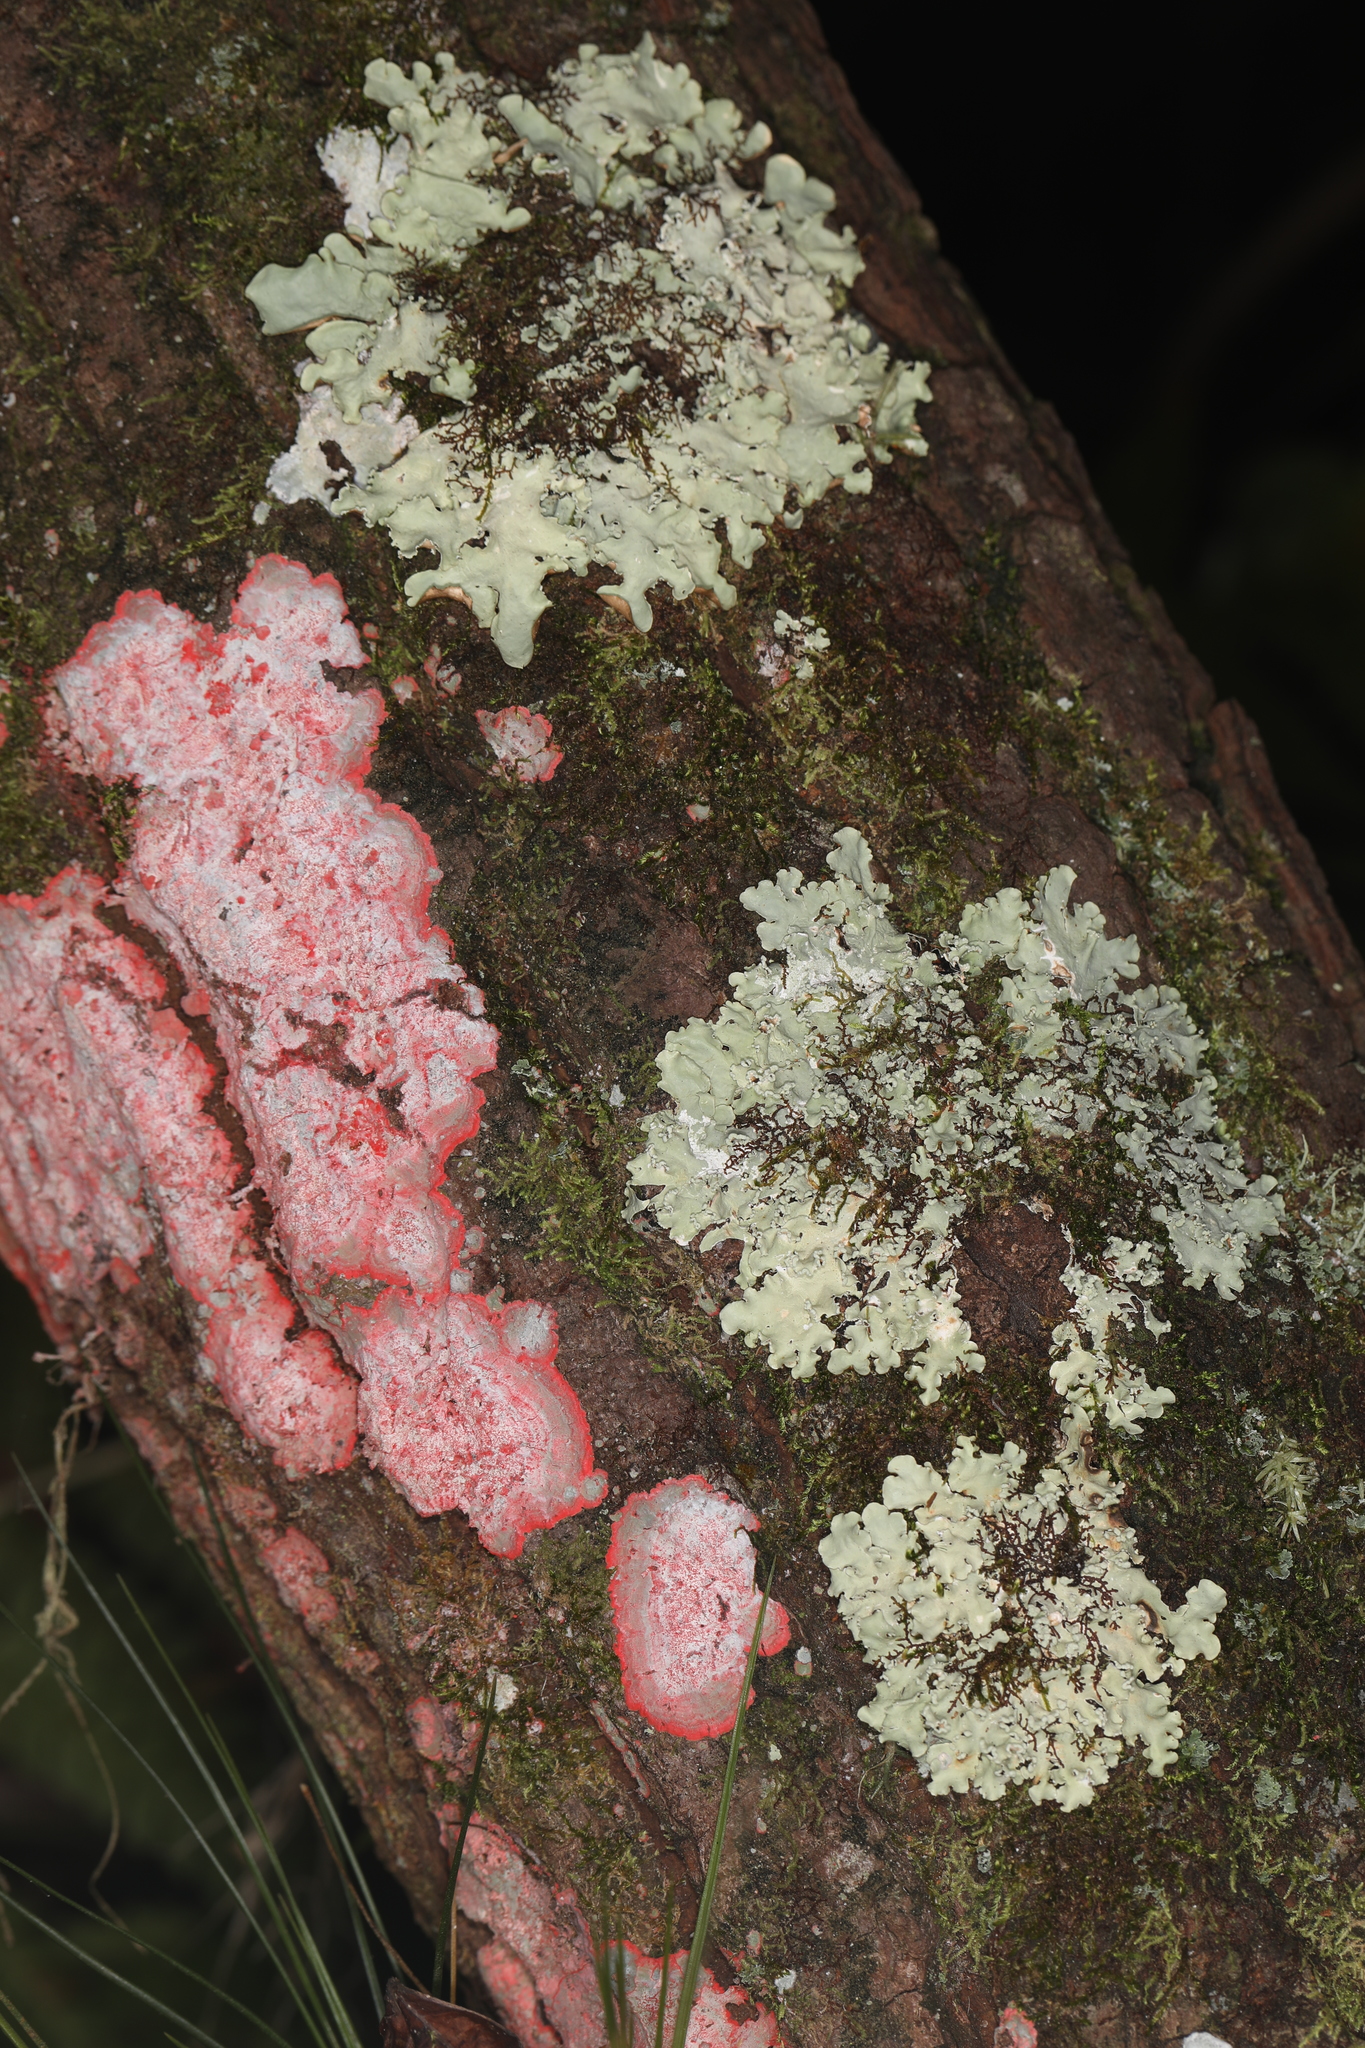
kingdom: Fungi
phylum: Ascomycota
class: Arthoniomycetes
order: Arthoniales
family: Arthoniaceae
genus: Herpothallon
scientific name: Herpothallon rubrocinctum
